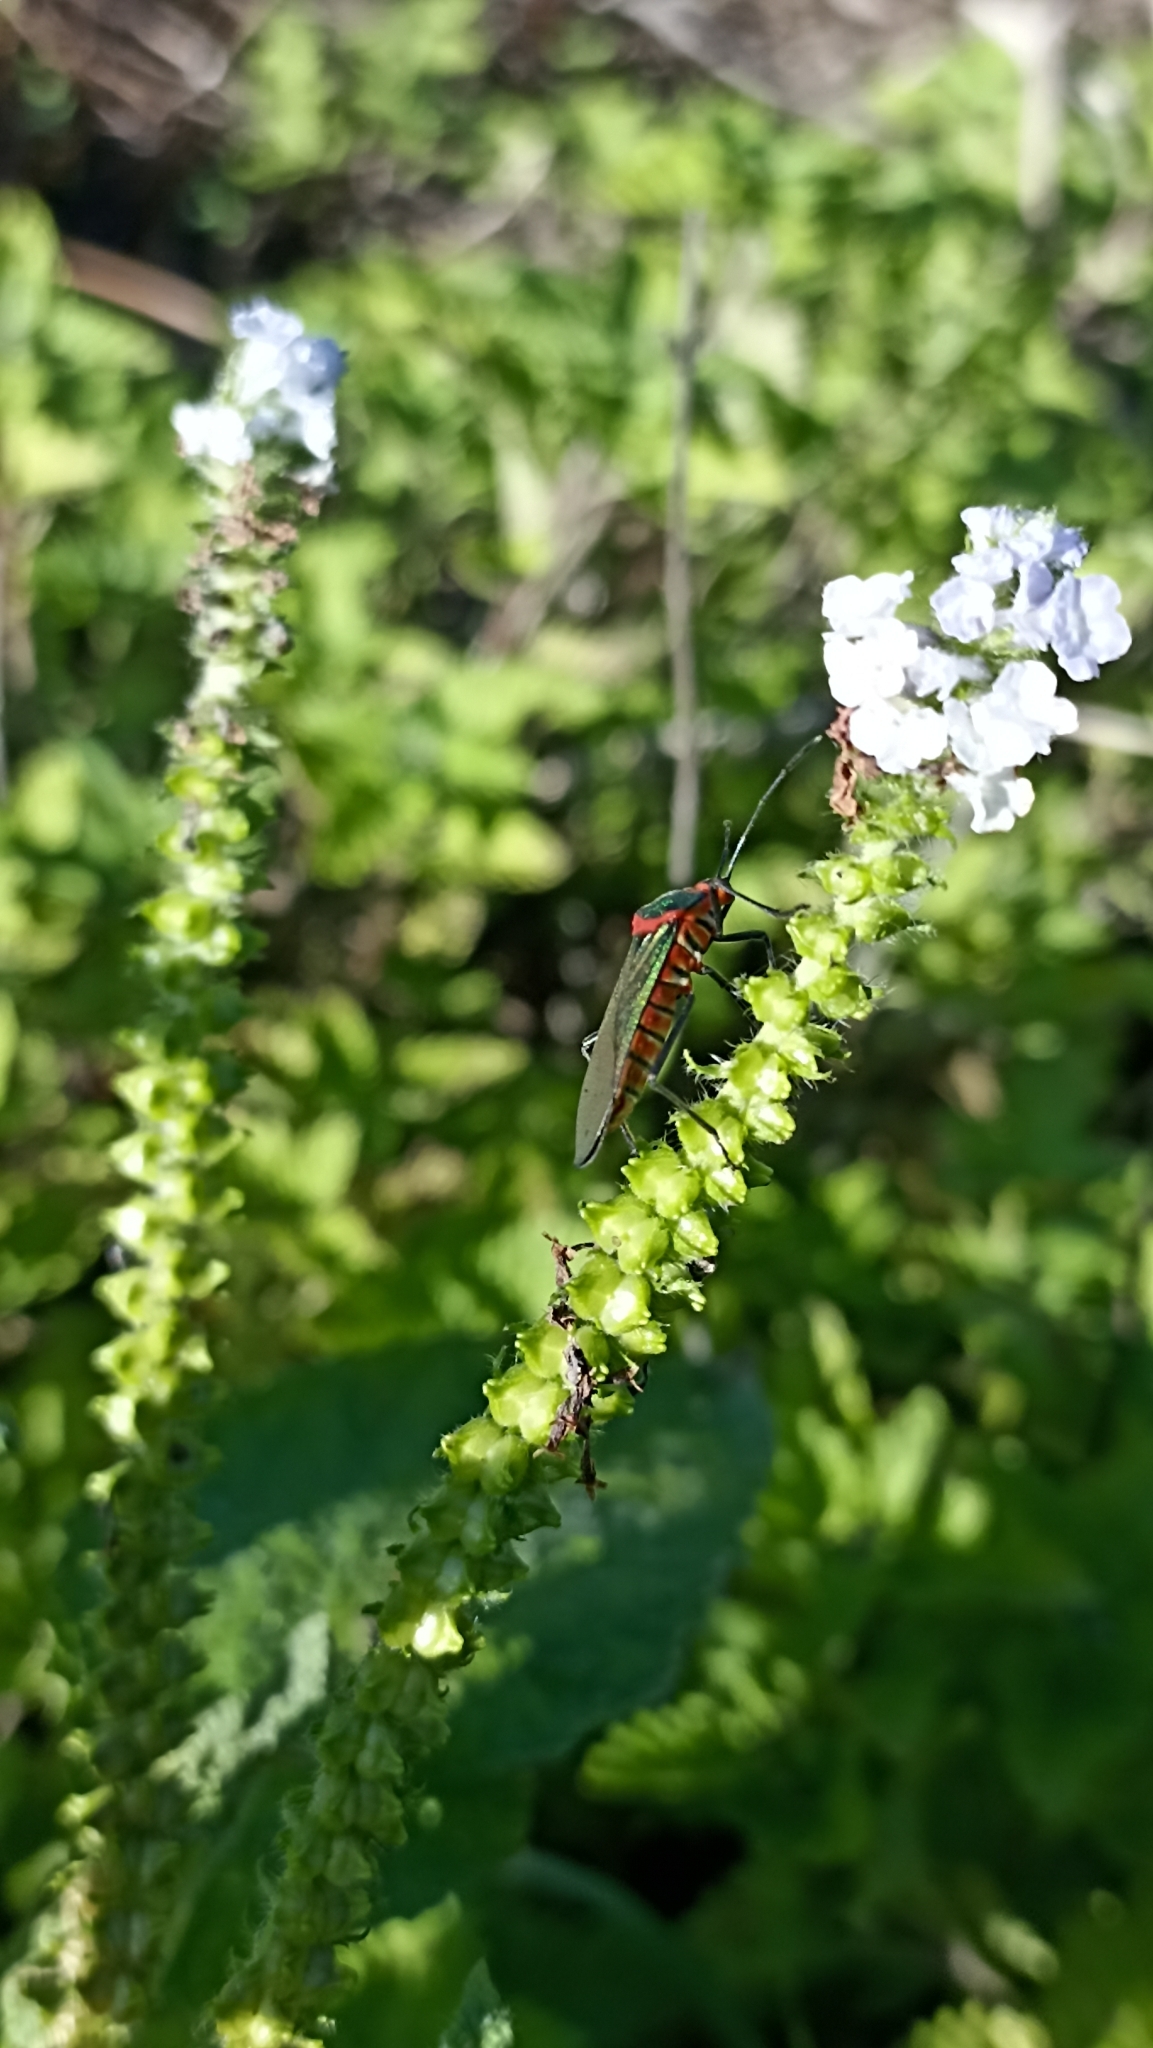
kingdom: Animalia
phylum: Arthropoda
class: Insecta
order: Hemiptera
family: Coreidae
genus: Sphictyrtus
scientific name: Sphictyrtus chrysis
